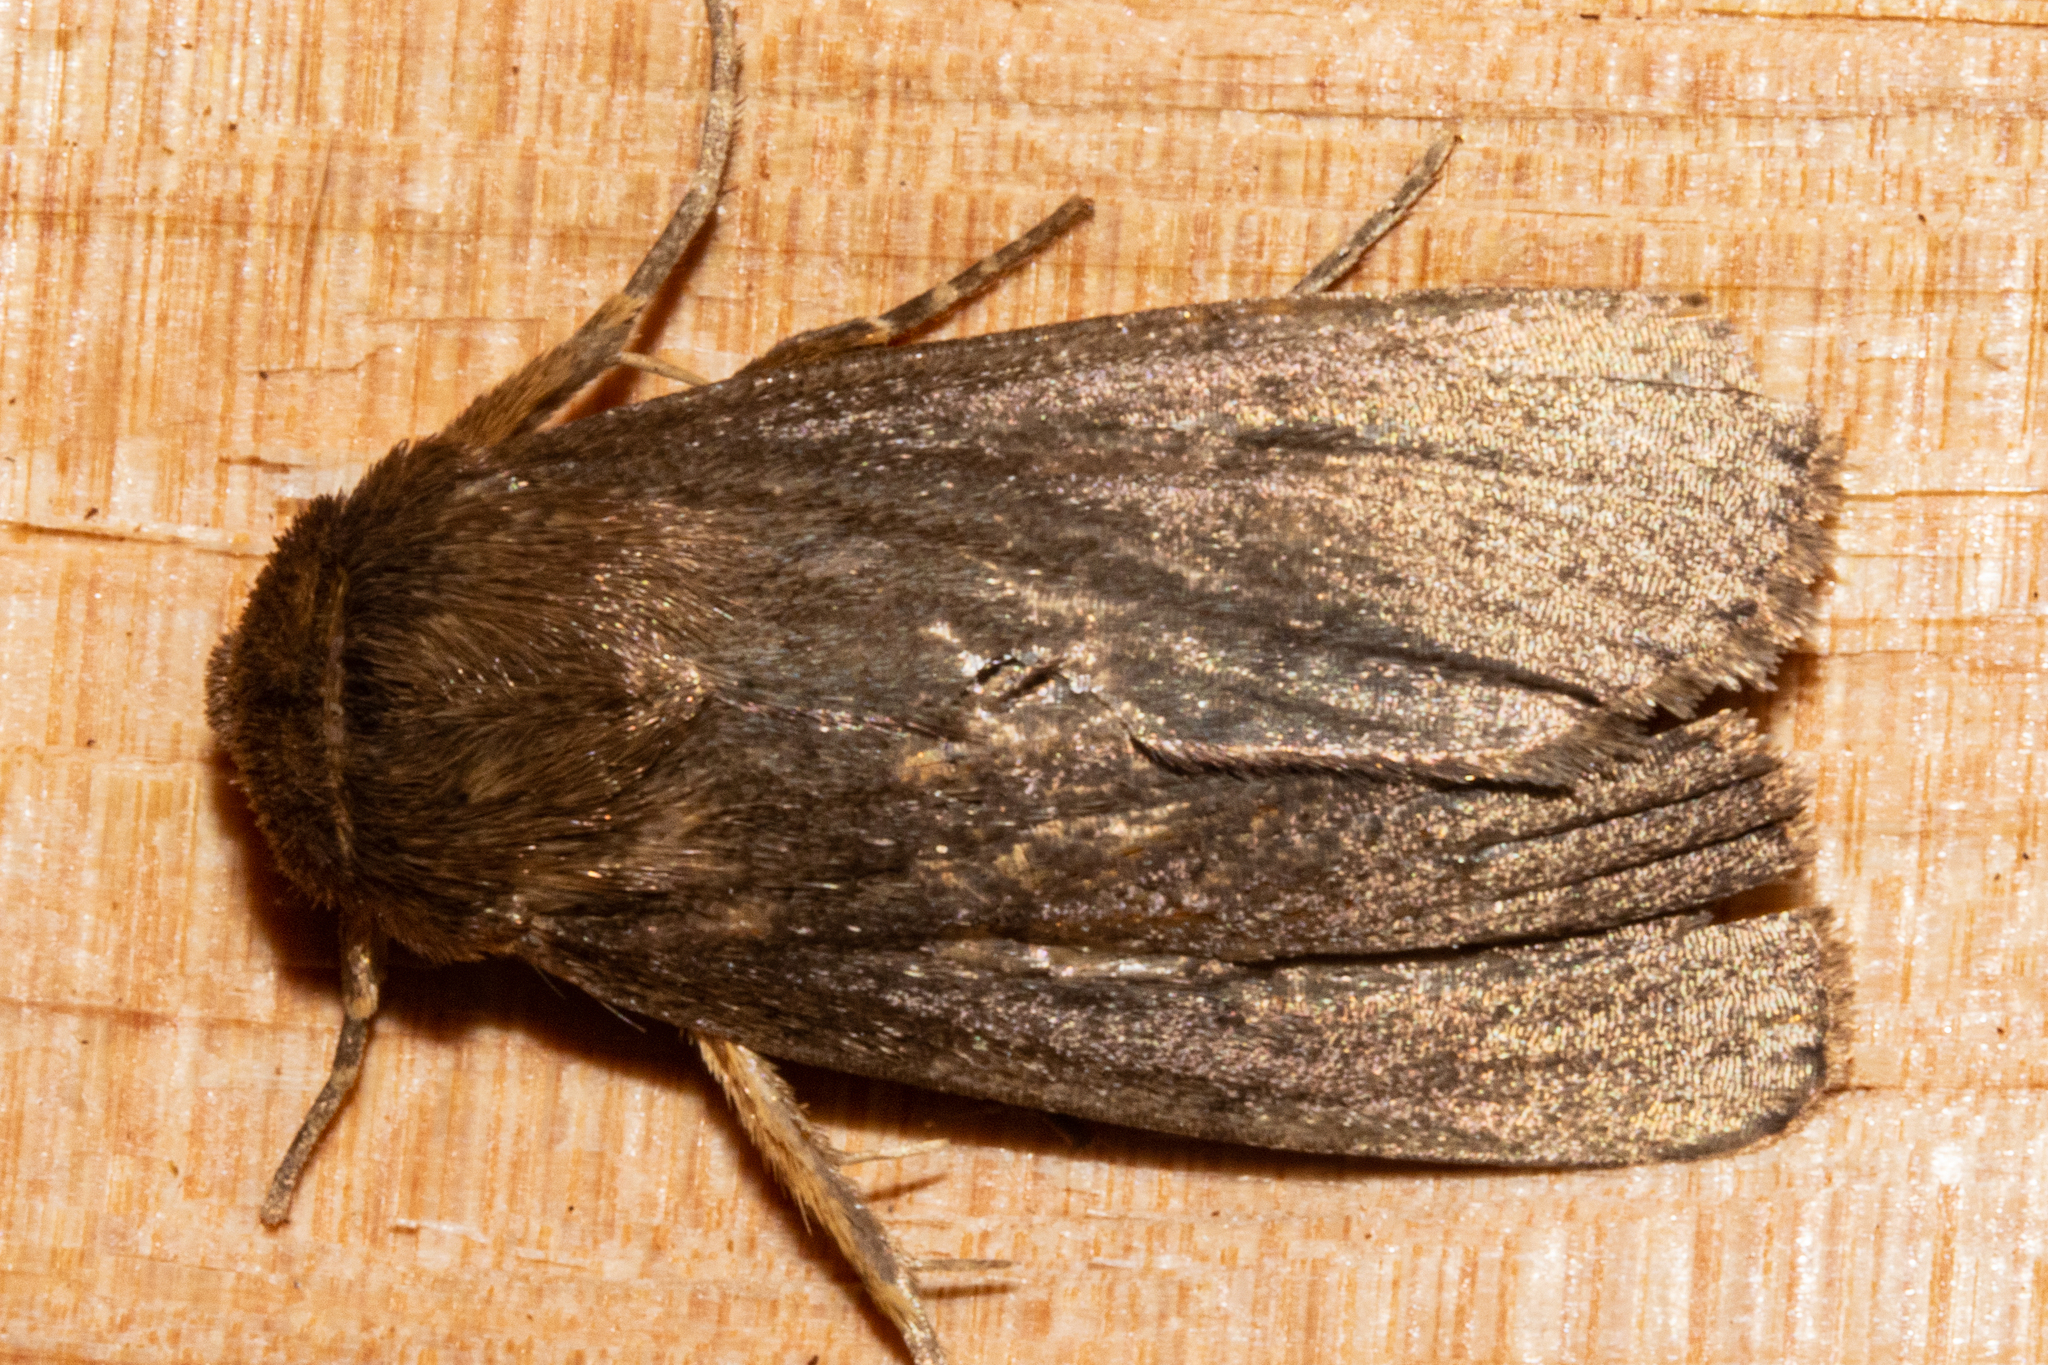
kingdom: Animalia
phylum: Arthropoda
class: Insecta
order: Lepidoptera
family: Noctuidae
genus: Bityla
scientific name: Bityla defigurata
